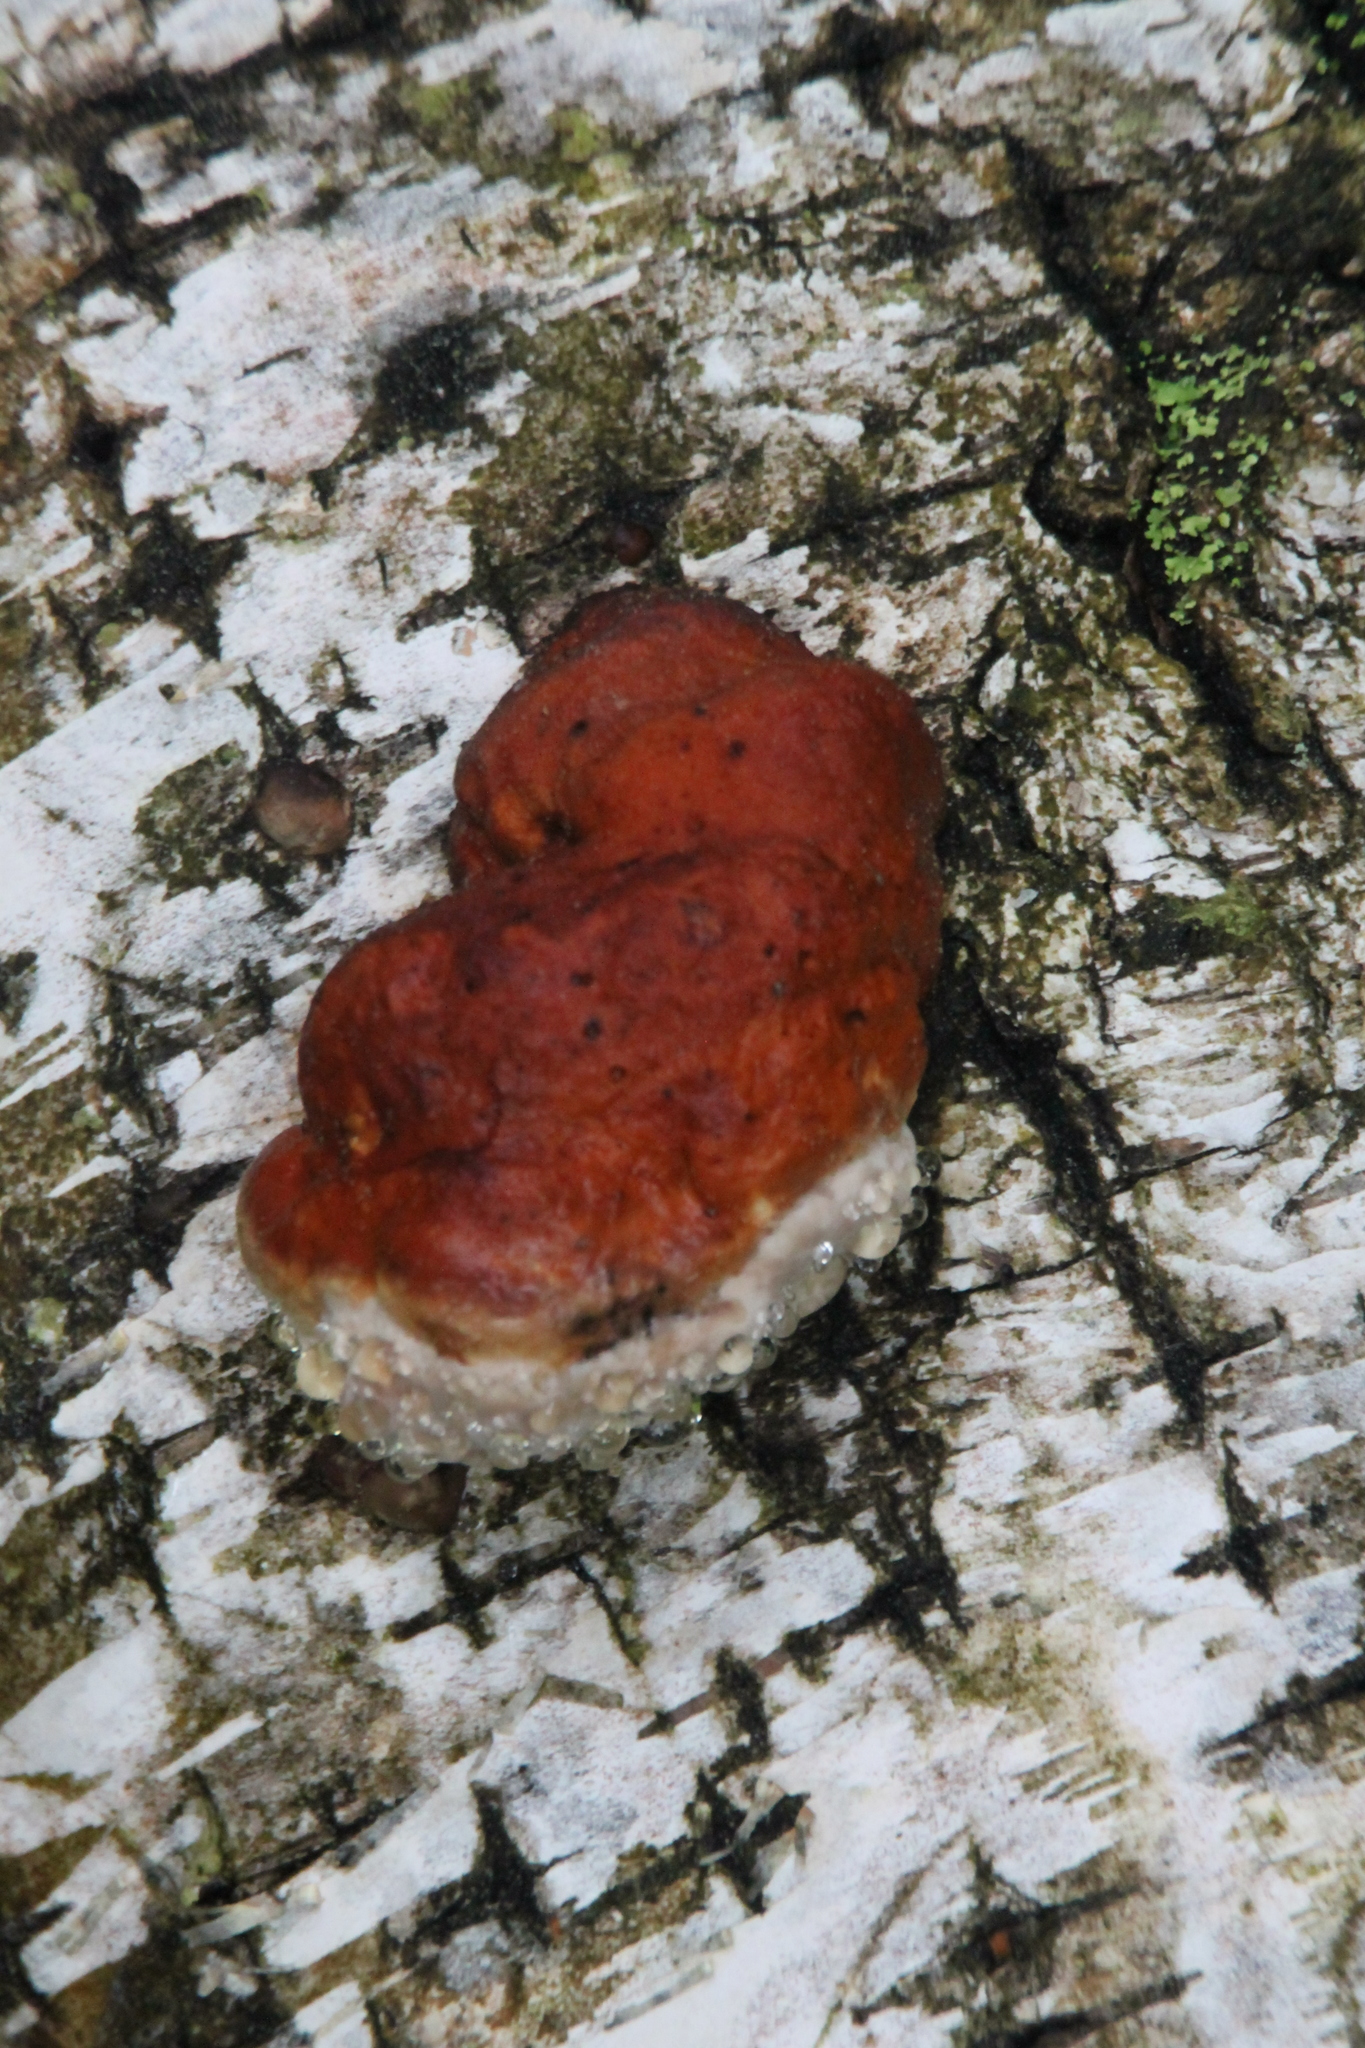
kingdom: Fungi
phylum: Basidiomycota
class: Agaricomycetes
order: Polyporales
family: Fomitopsidaceae
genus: Fomitopsis
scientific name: Fomitopsis pinicola
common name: Red-belted bracket
